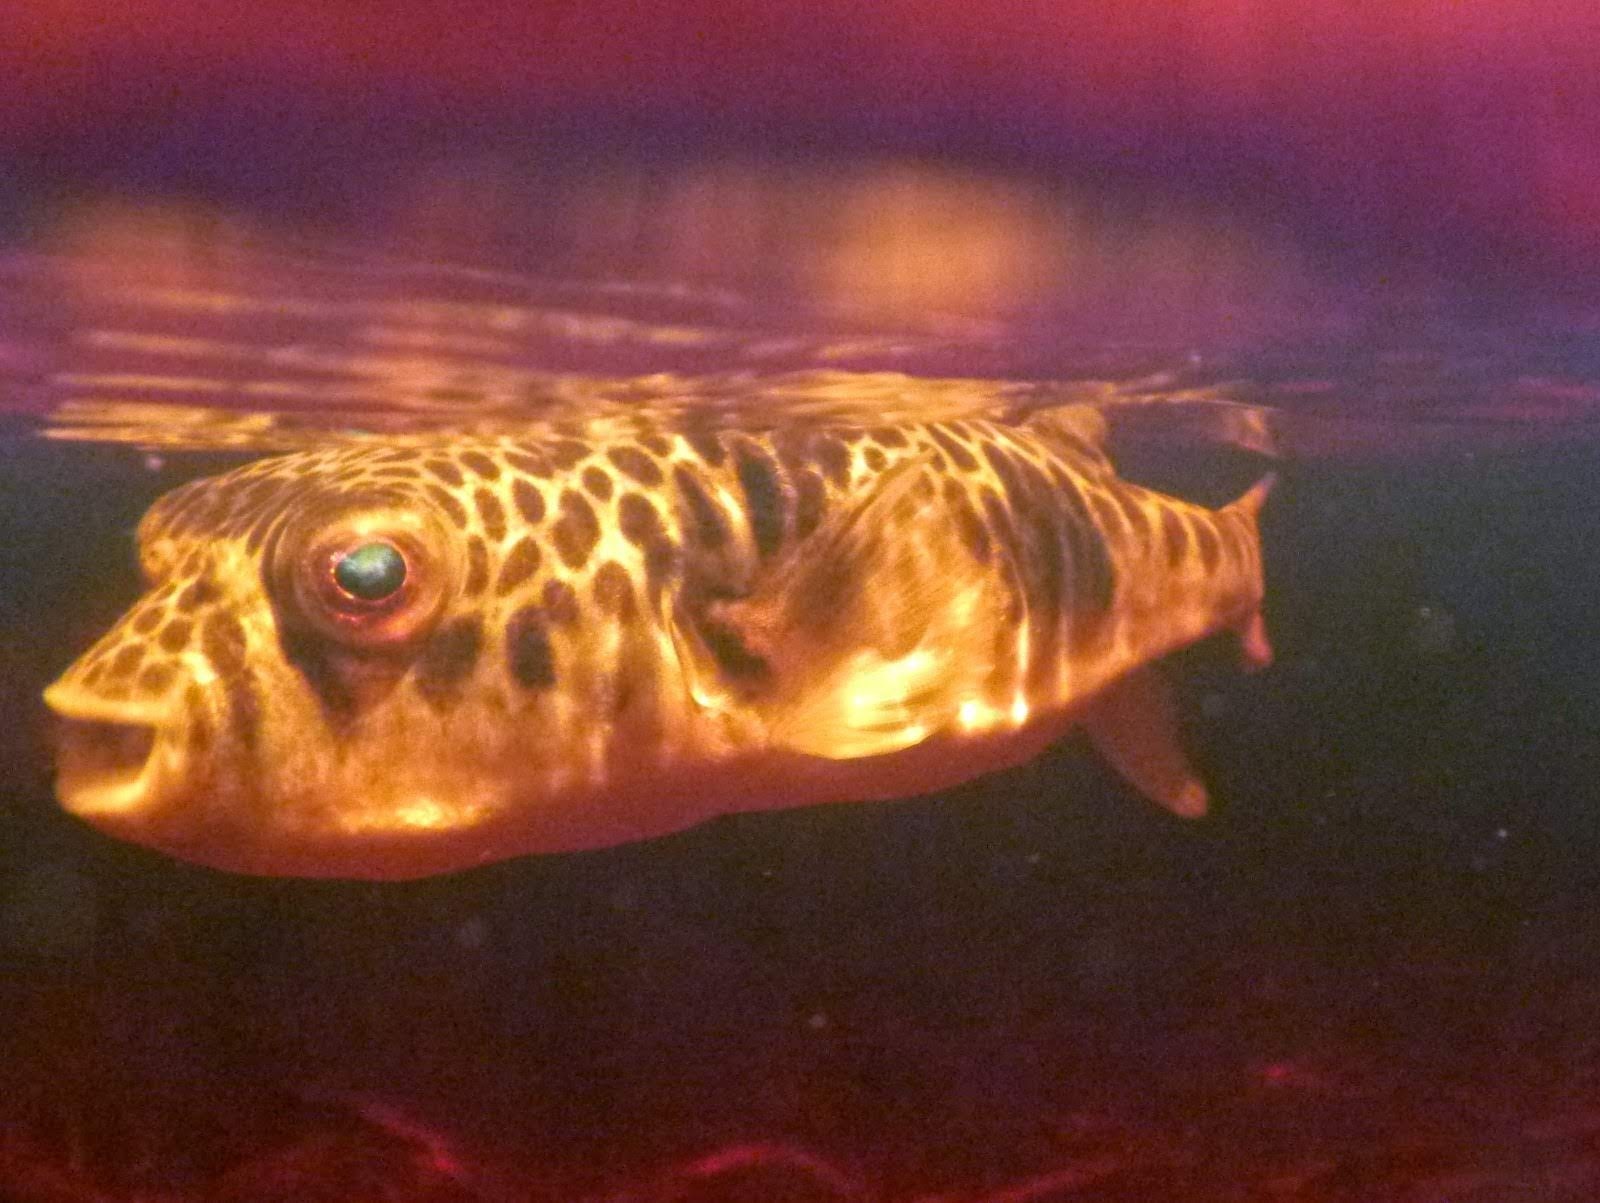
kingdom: Animalia
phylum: Chordata
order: Tetraodontiformes
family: Tetraodontidae
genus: Tetractenos
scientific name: Tetractenos glaber
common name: Smooth toadfish
